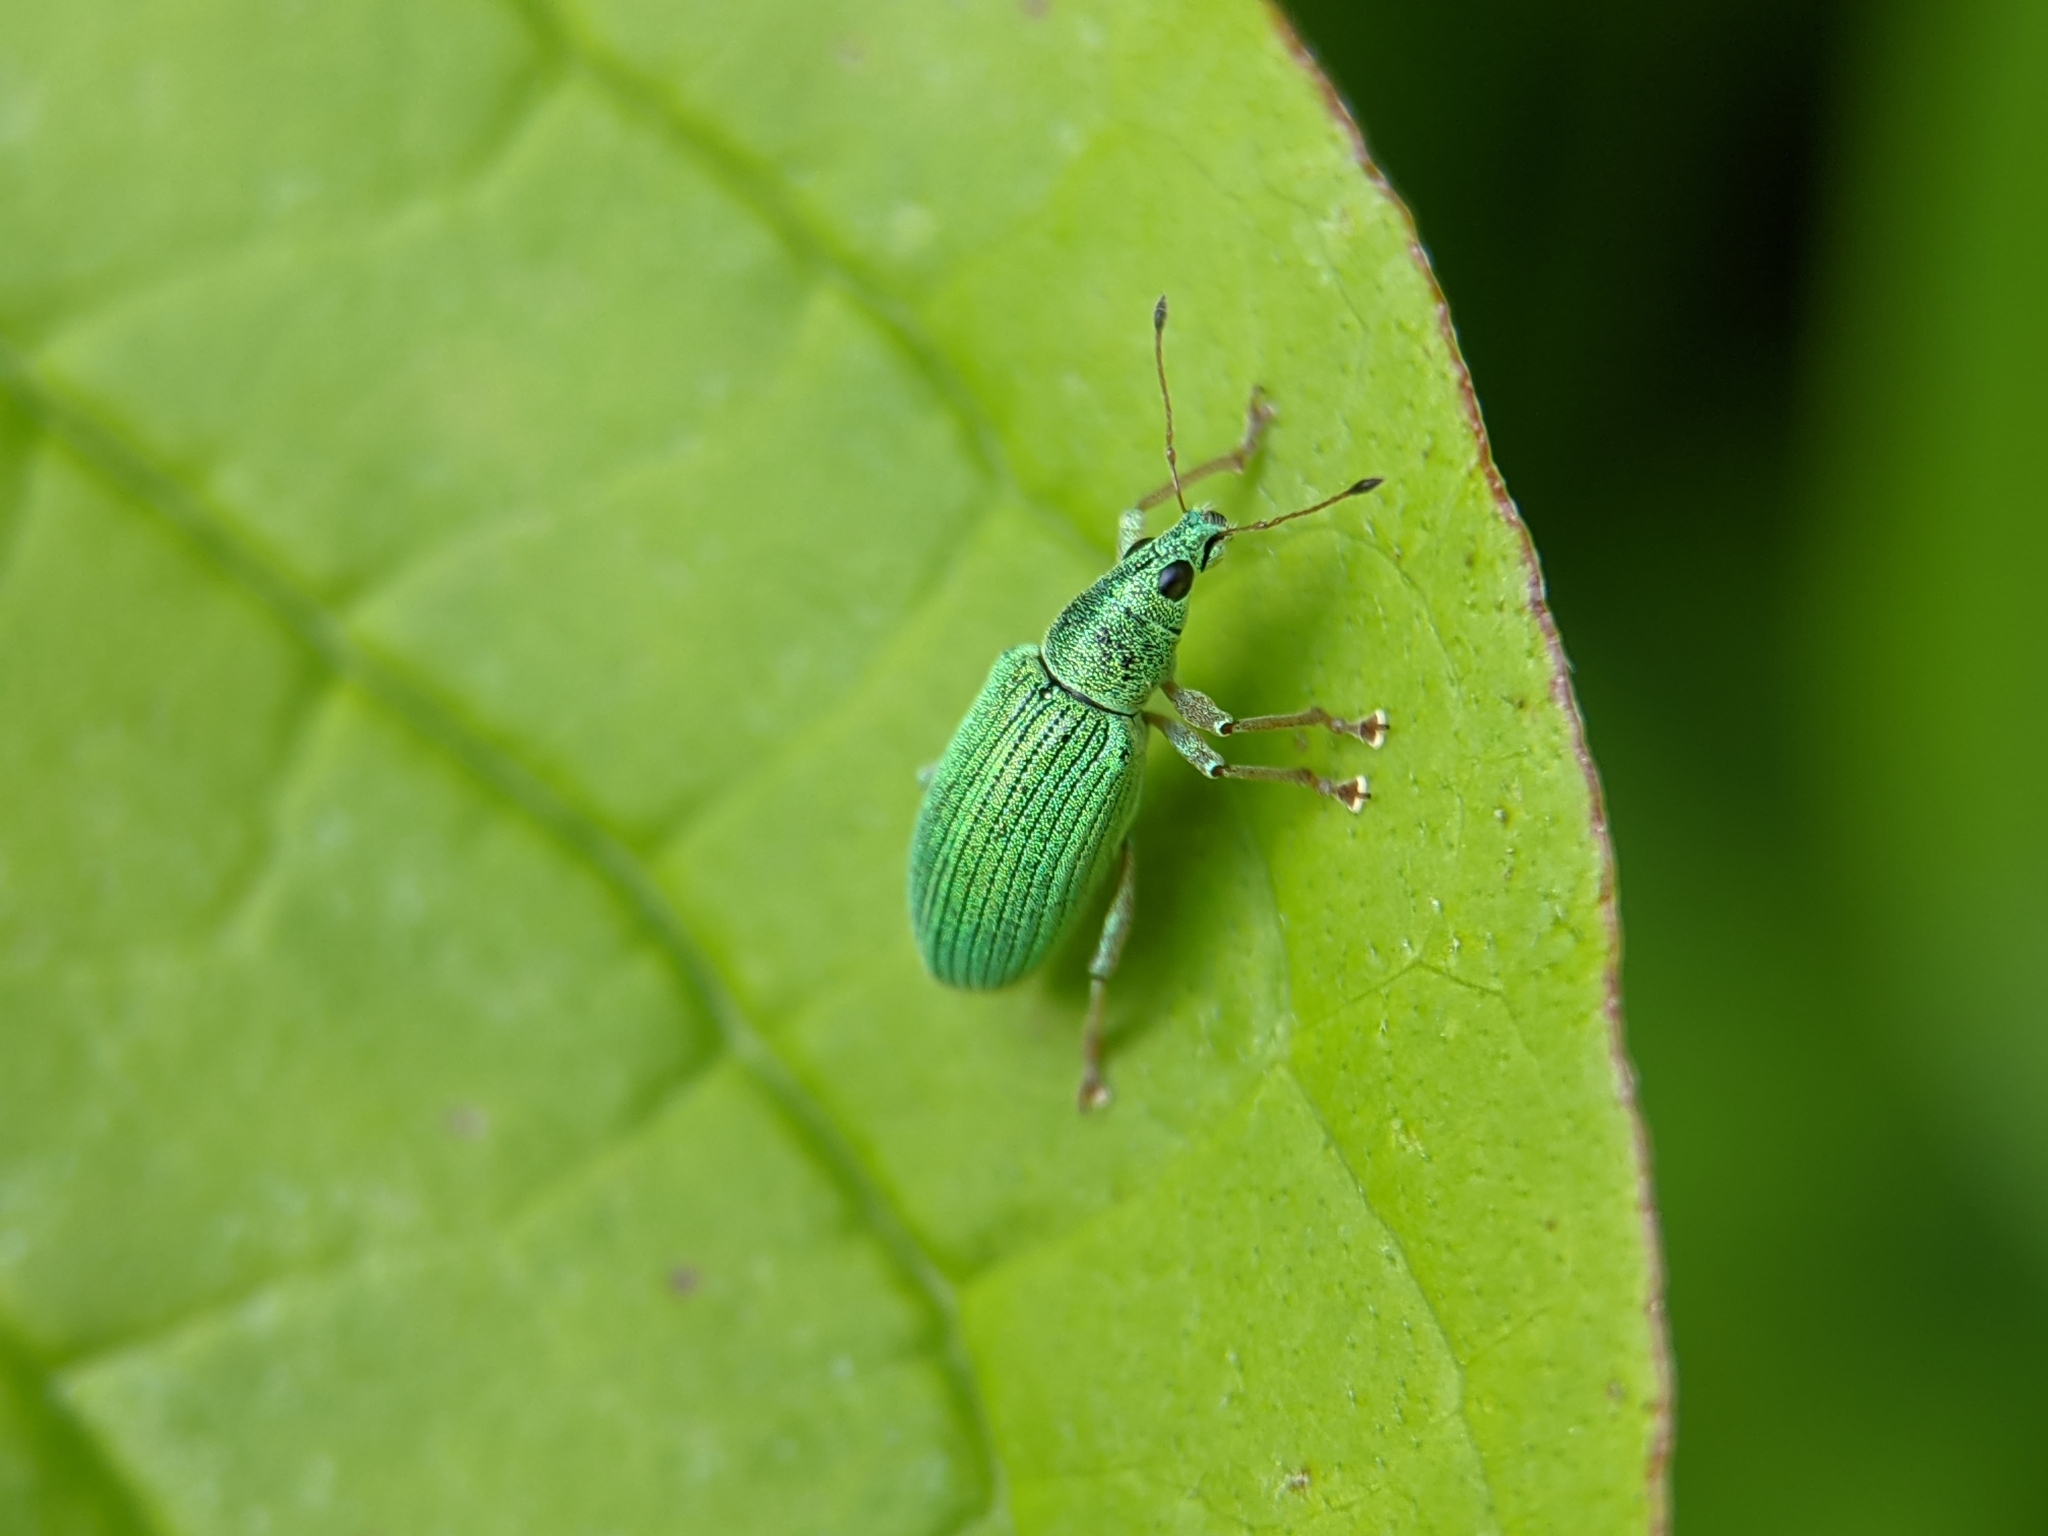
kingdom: Animalia
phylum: Arthropoda
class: Insecta
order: Coleoptera
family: Curculionidae
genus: Polydrusus
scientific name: Polydrusus formosus
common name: Weevil
